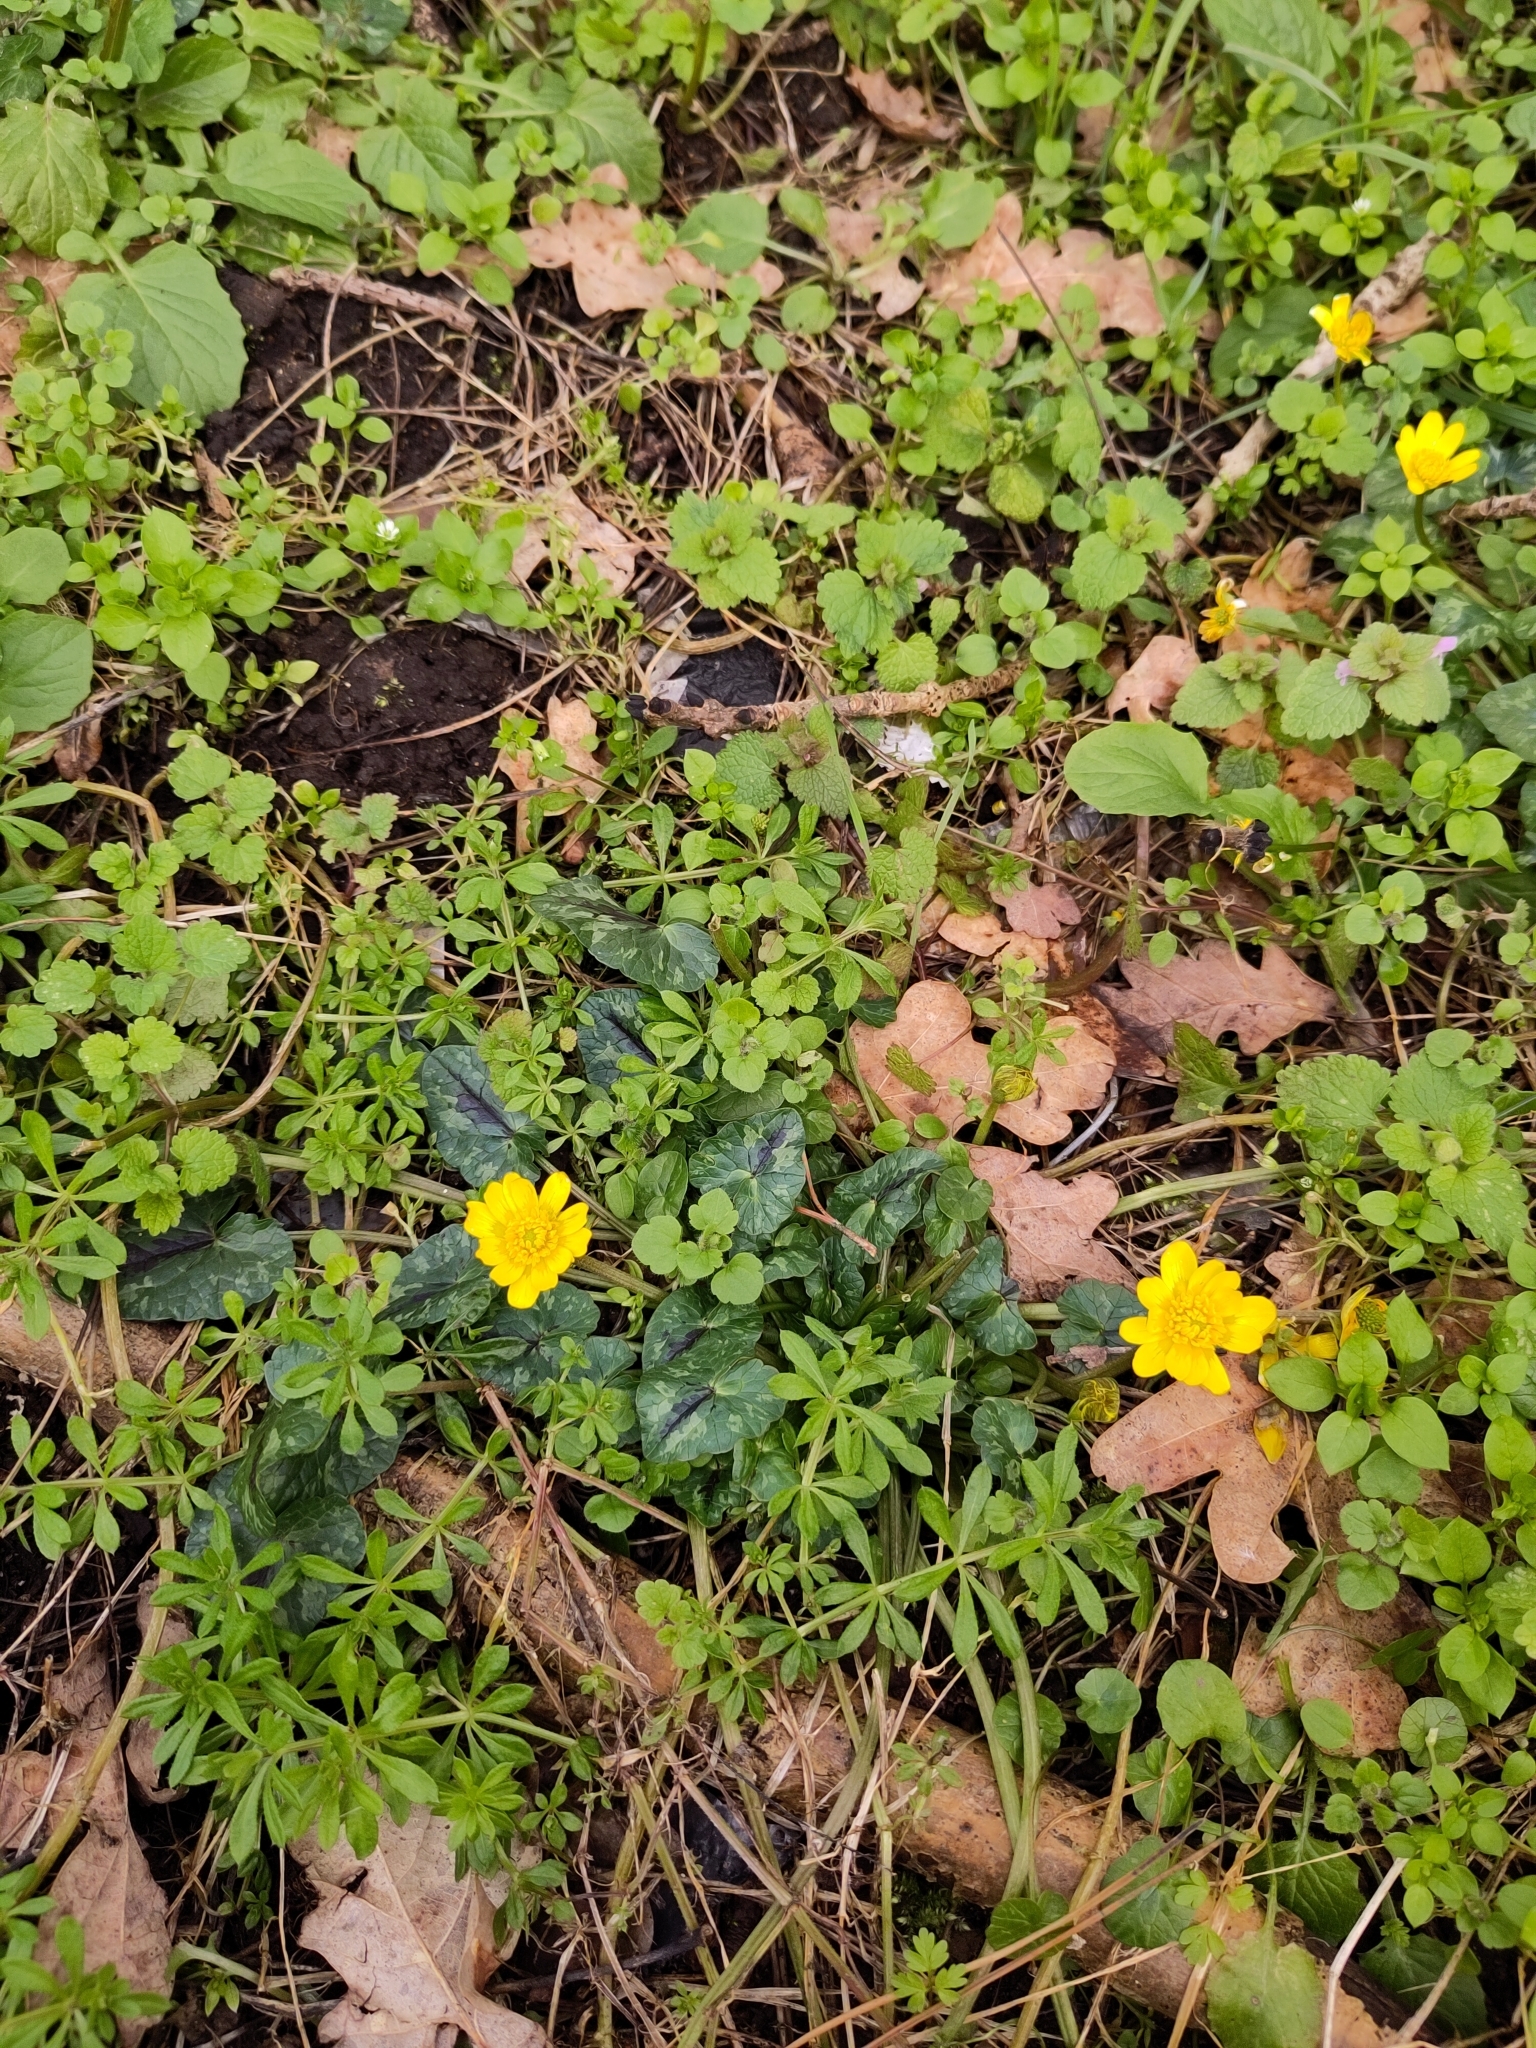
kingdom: Plantae
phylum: Tracheophyta
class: Magnoliopsida
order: Ranunculales
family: Ranunculaceae
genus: Ficaria
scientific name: Ficaria verna
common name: Lesser celandine
